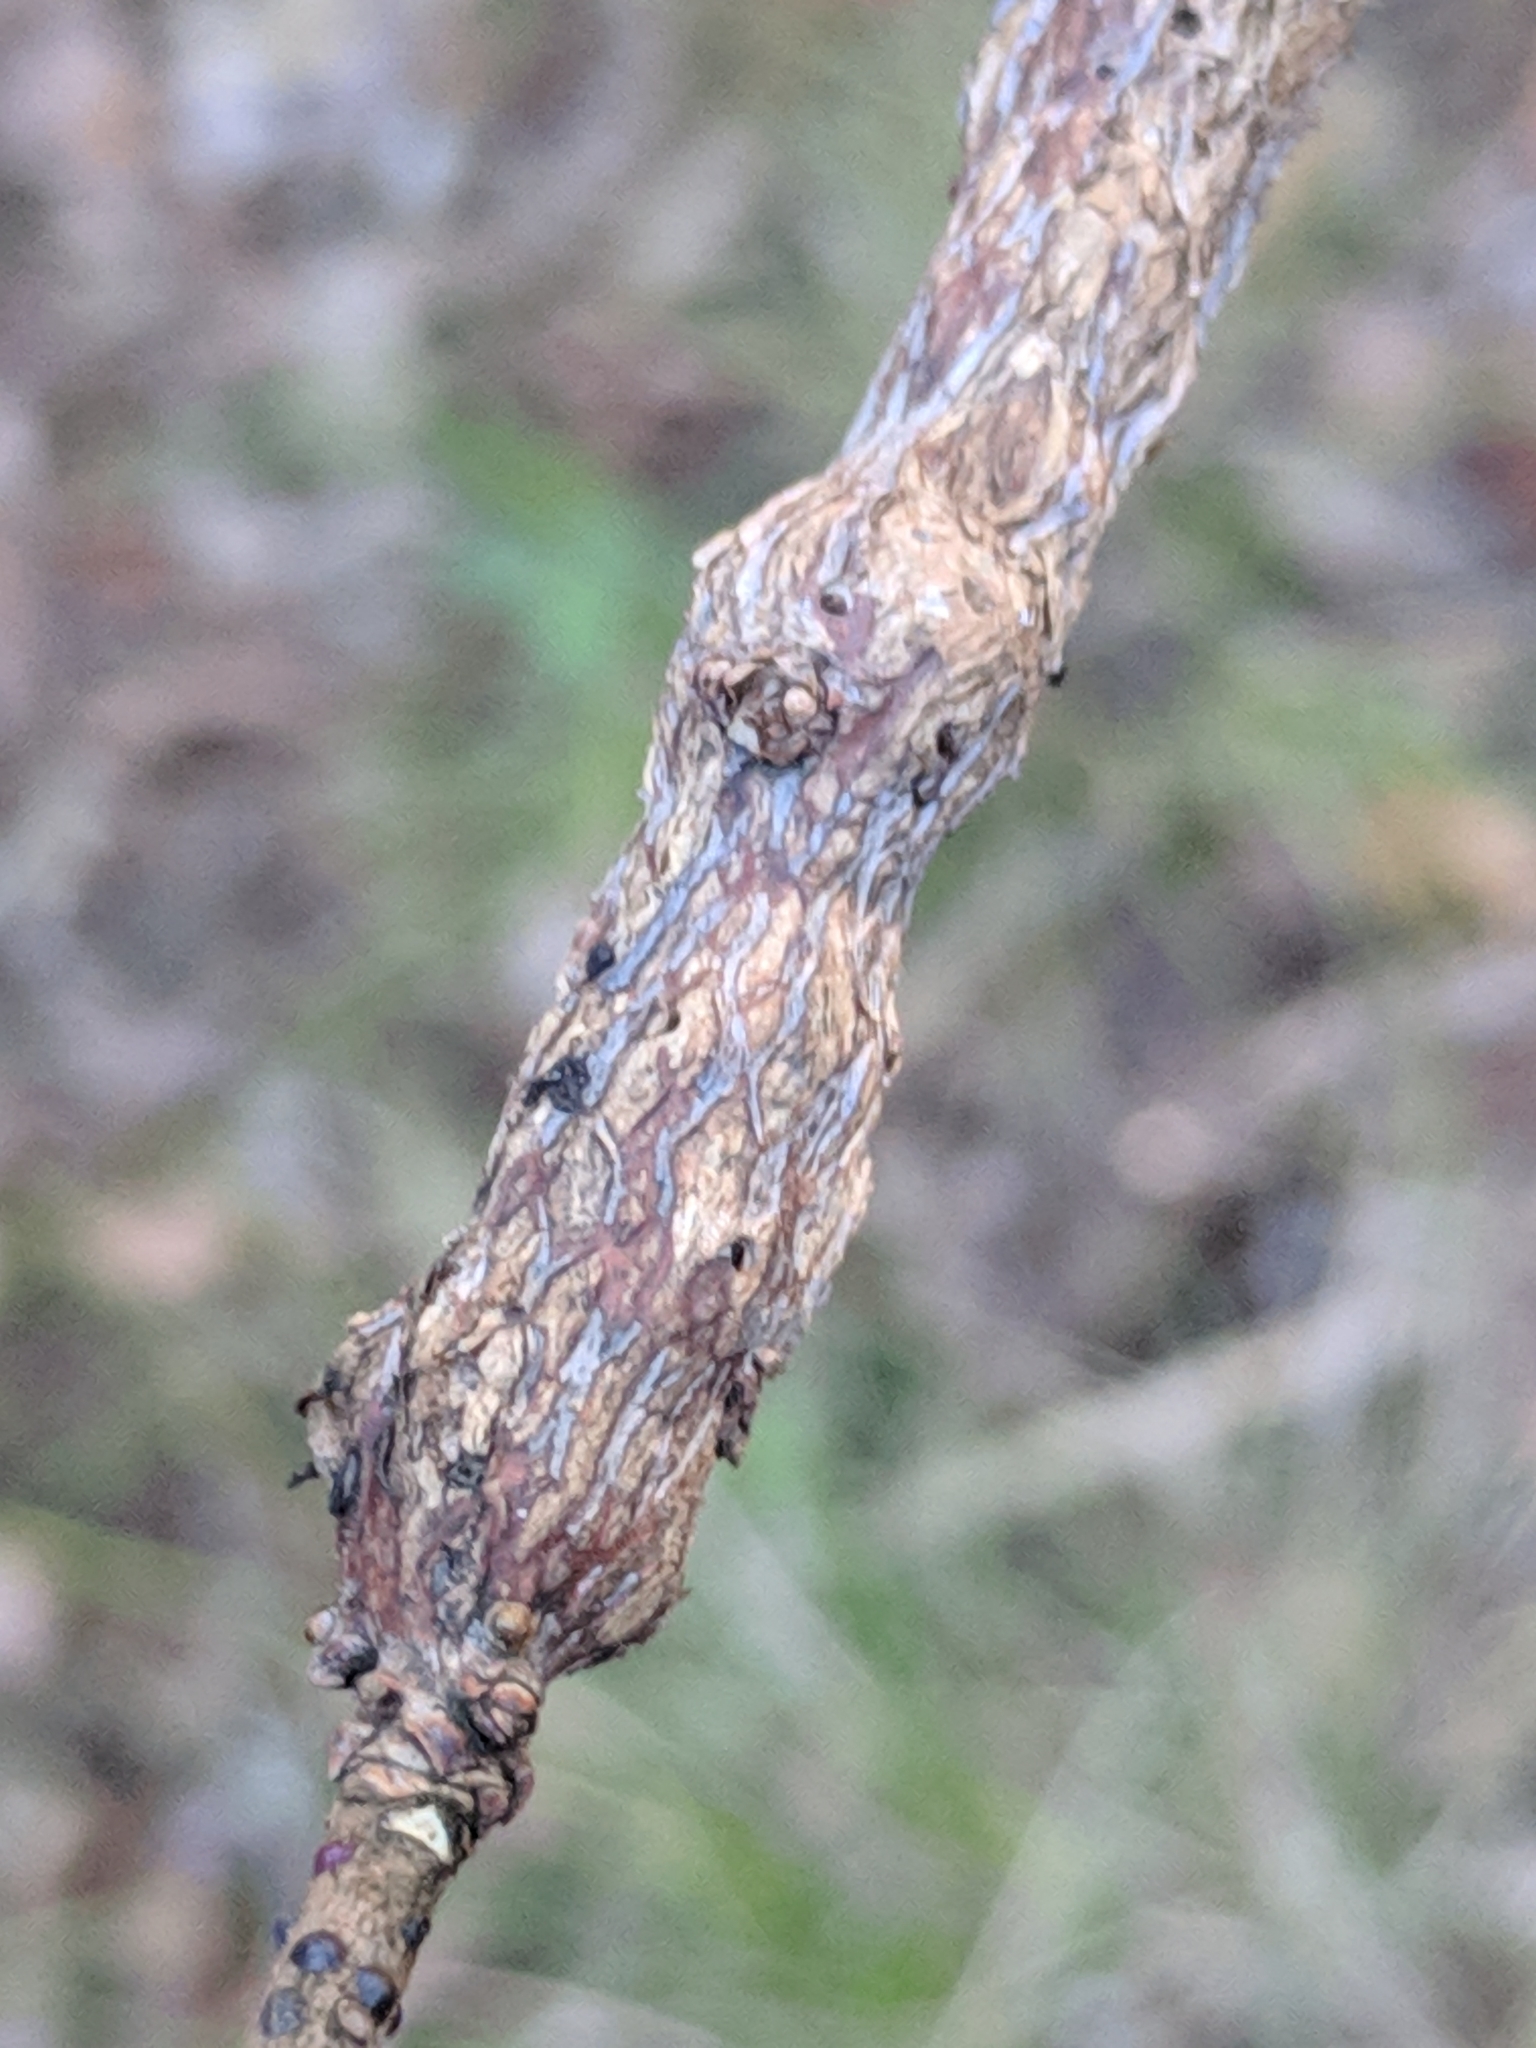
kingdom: Animalia
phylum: Arthropoda
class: Insecta
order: Diptera
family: Cecidomyiidae
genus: Bruggmanniella
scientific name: Bruggmanniella bumeliae
